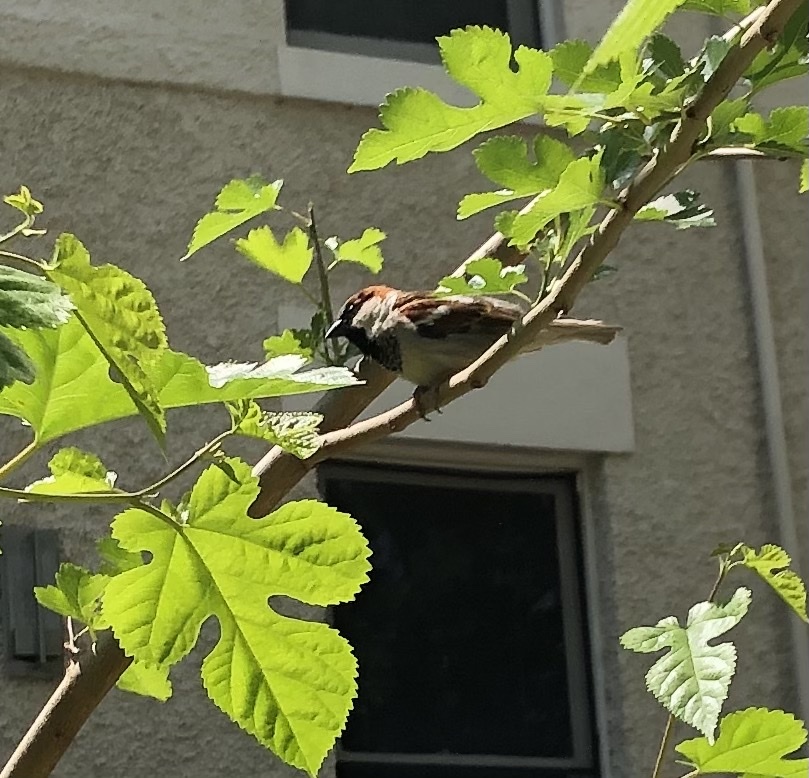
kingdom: Animalia
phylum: Chordata
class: Aves
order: Passeriformes
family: Passeridae
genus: Passer
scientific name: Passer domesticus
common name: House sparrow
